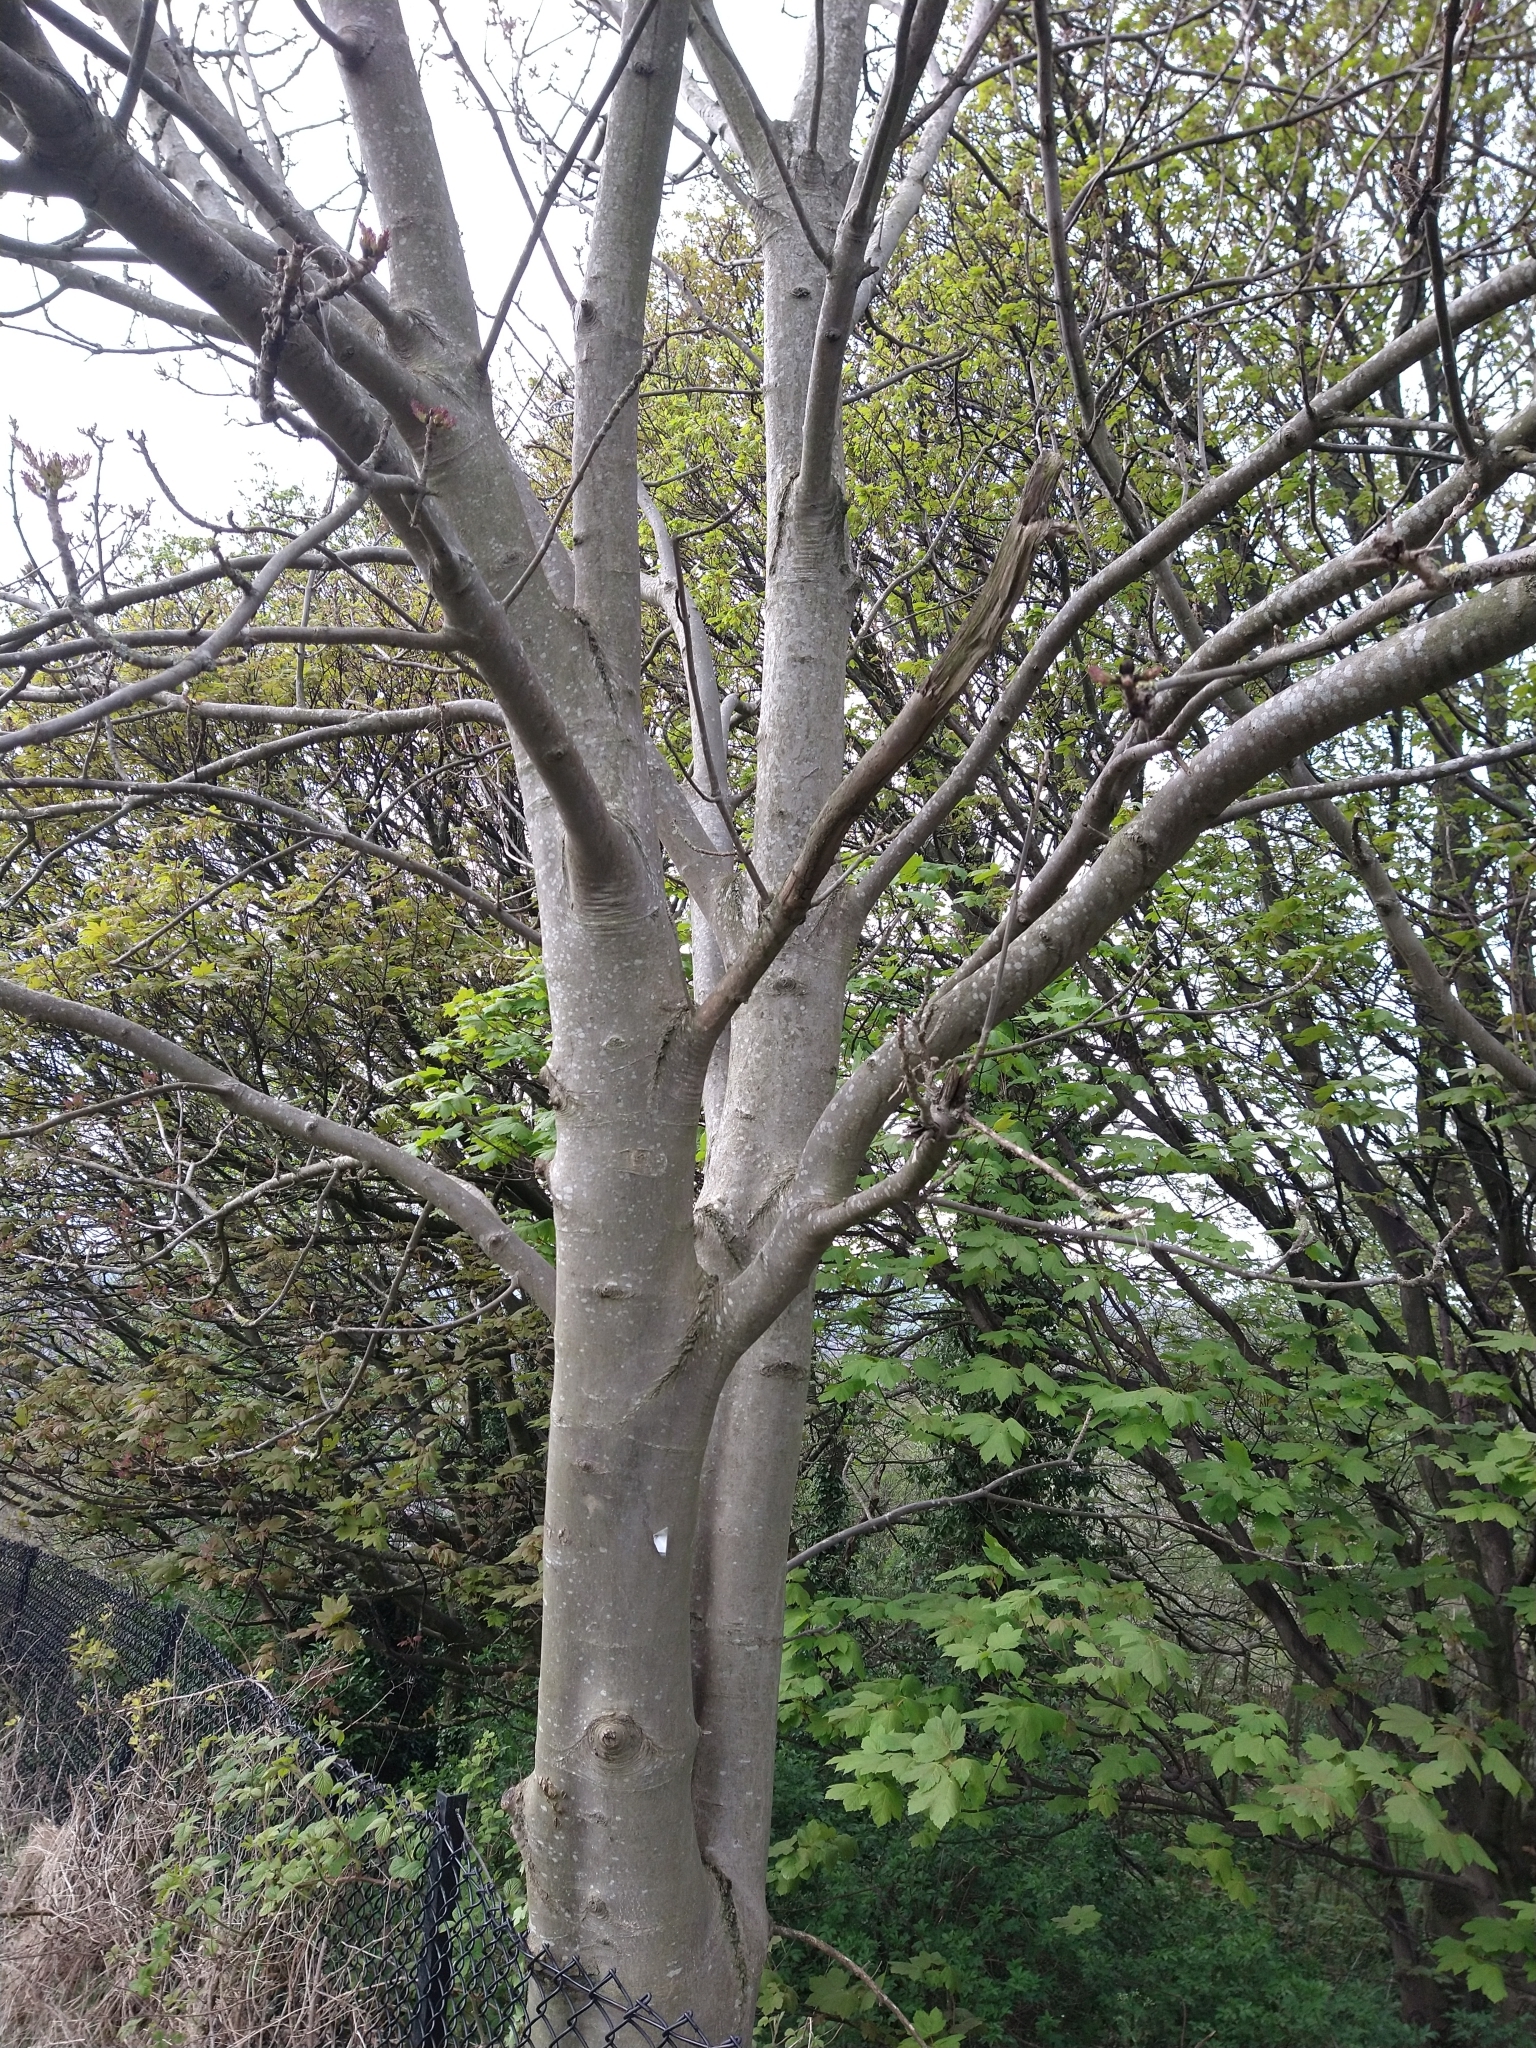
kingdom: Plantae
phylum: Tracheophyta
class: Magnoliopsida
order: Lamiales
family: Oleaceae
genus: Fraxinus
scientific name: Fraxinus excelsior
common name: European ash
